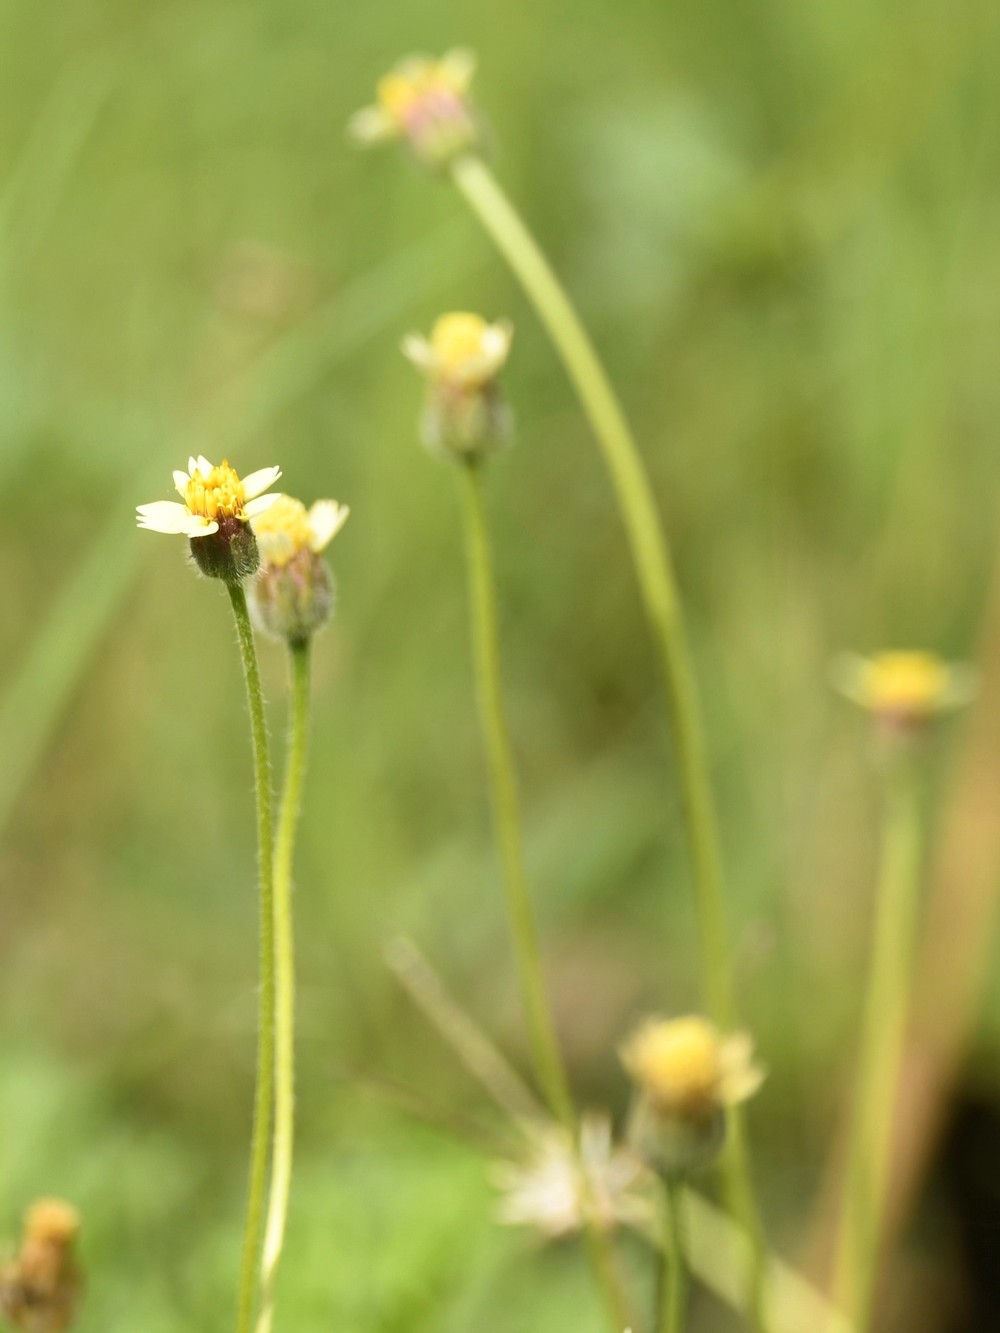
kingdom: Plantae
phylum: Tracheophyta
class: Magnoliopsida
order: Asterales
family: Asteraceae
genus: Tridax
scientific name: Tridax procumbens
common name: Coatbuttons
